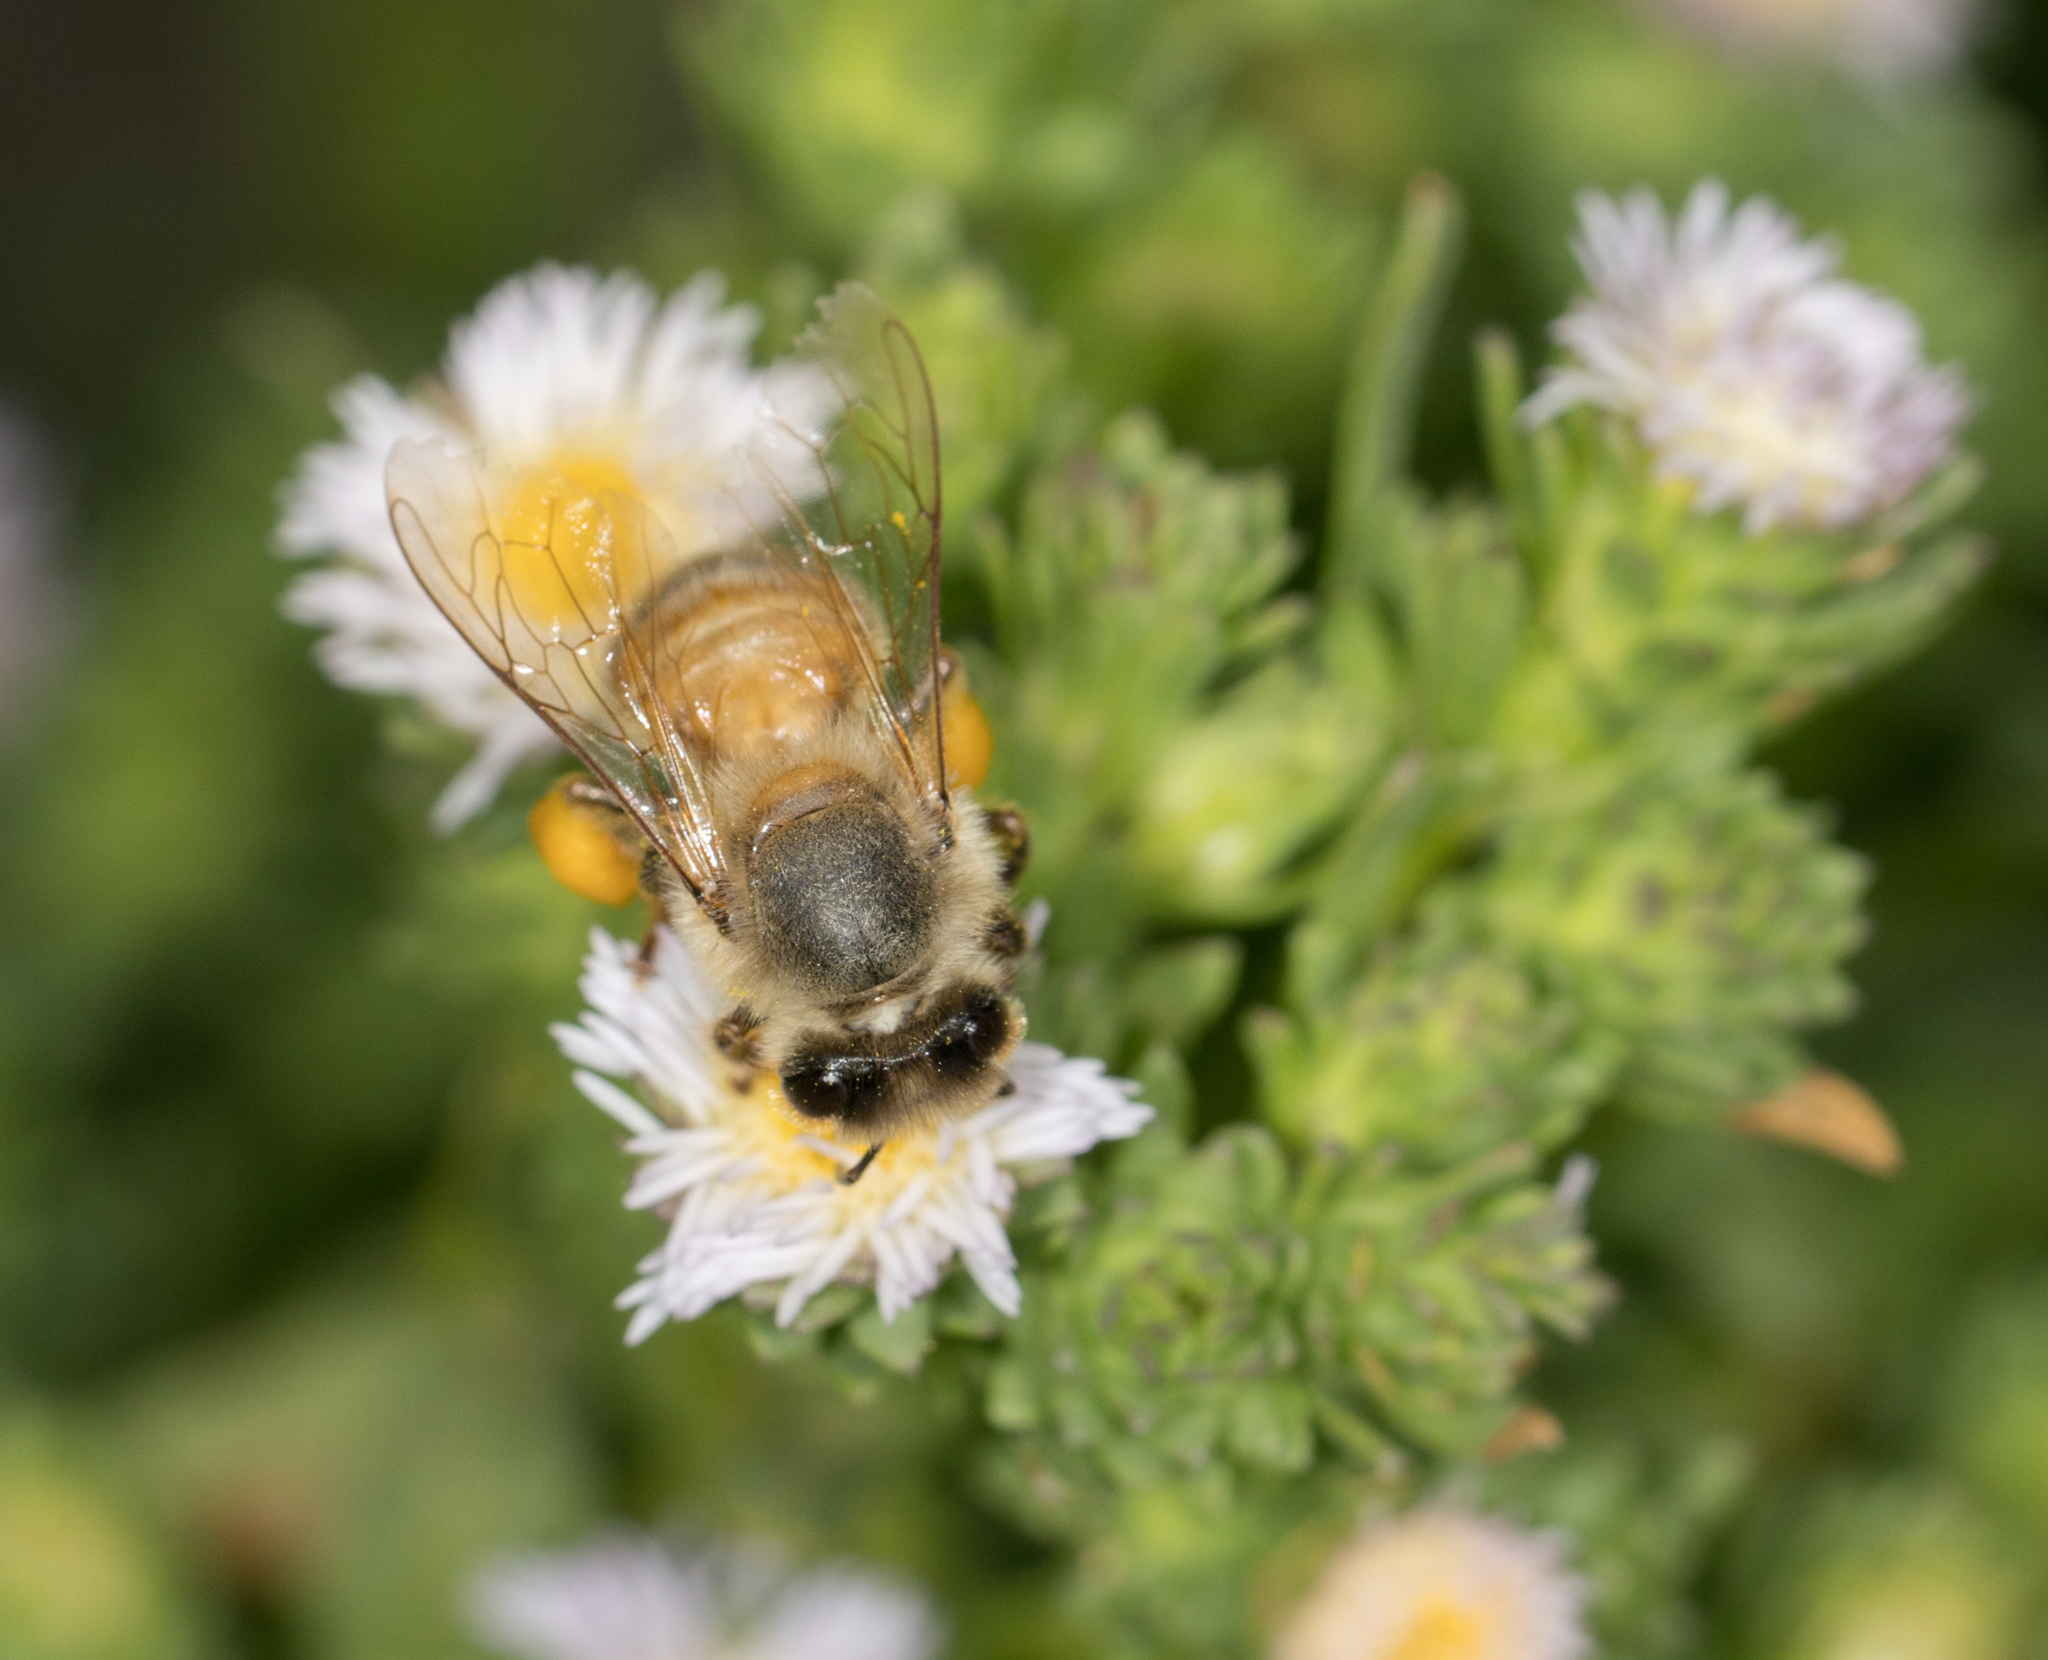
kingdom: Animalia
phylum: Arthropoda
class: Insecta
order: Hymenoptera
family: Apidae
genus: Apis
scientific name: Apis mellifera
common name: Honey bee
